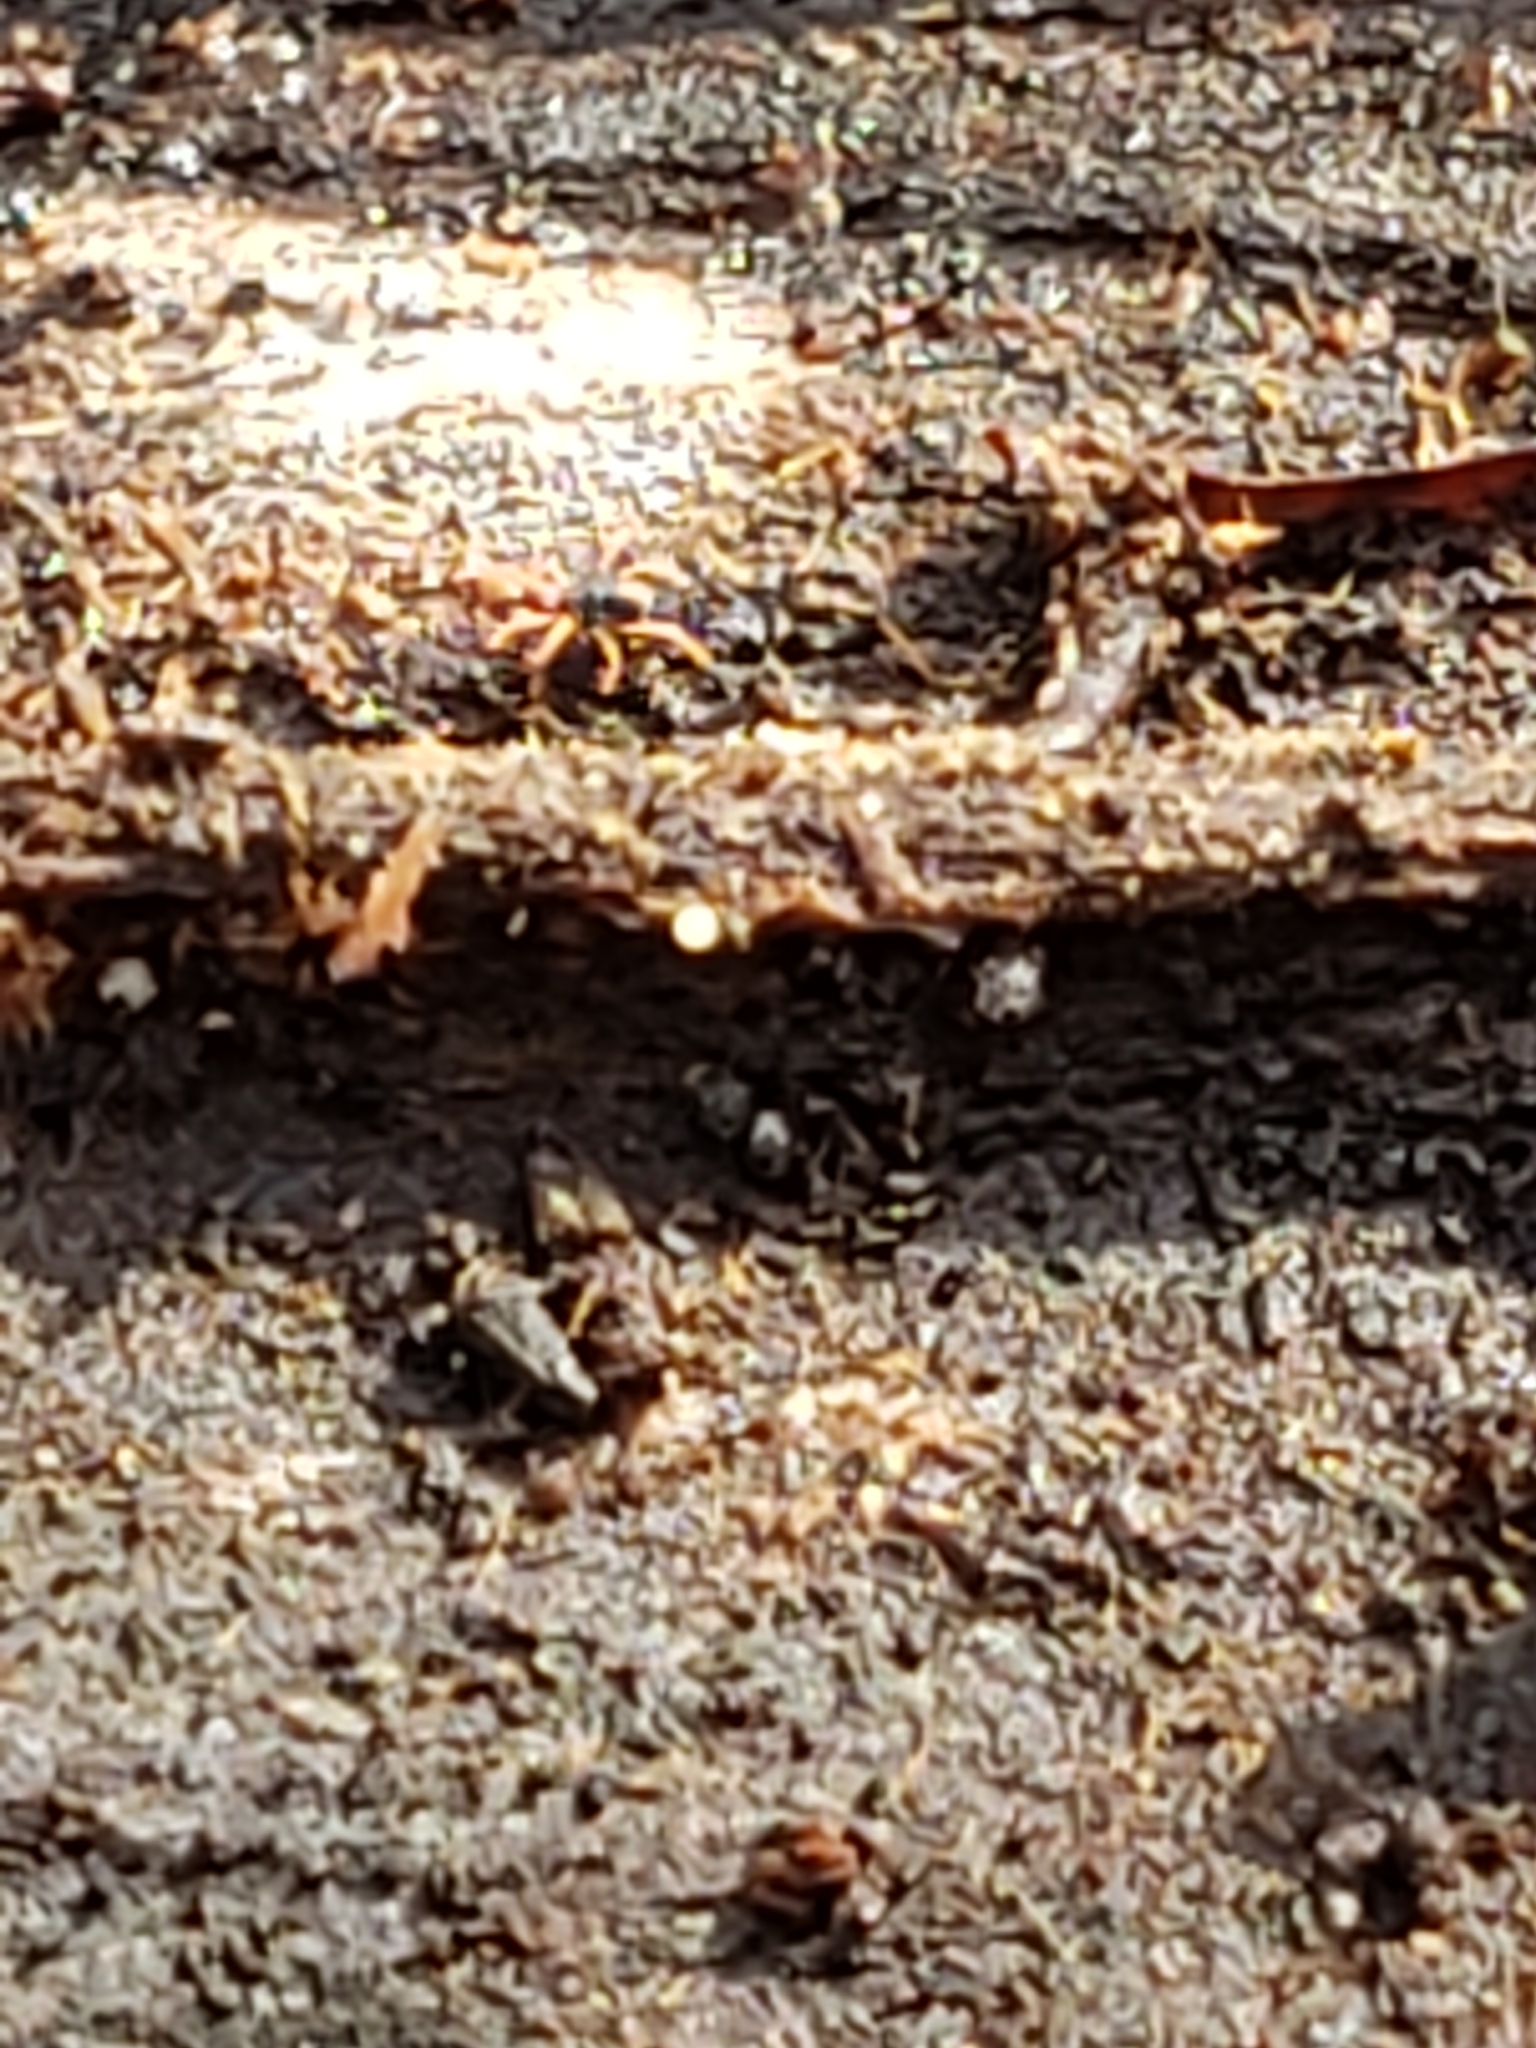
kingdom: Animalia
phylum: Arthropoda
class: Arachnida
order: Trombidiformes
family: Penthaleidae
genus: Penthaleus
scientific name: Penthaleus major
